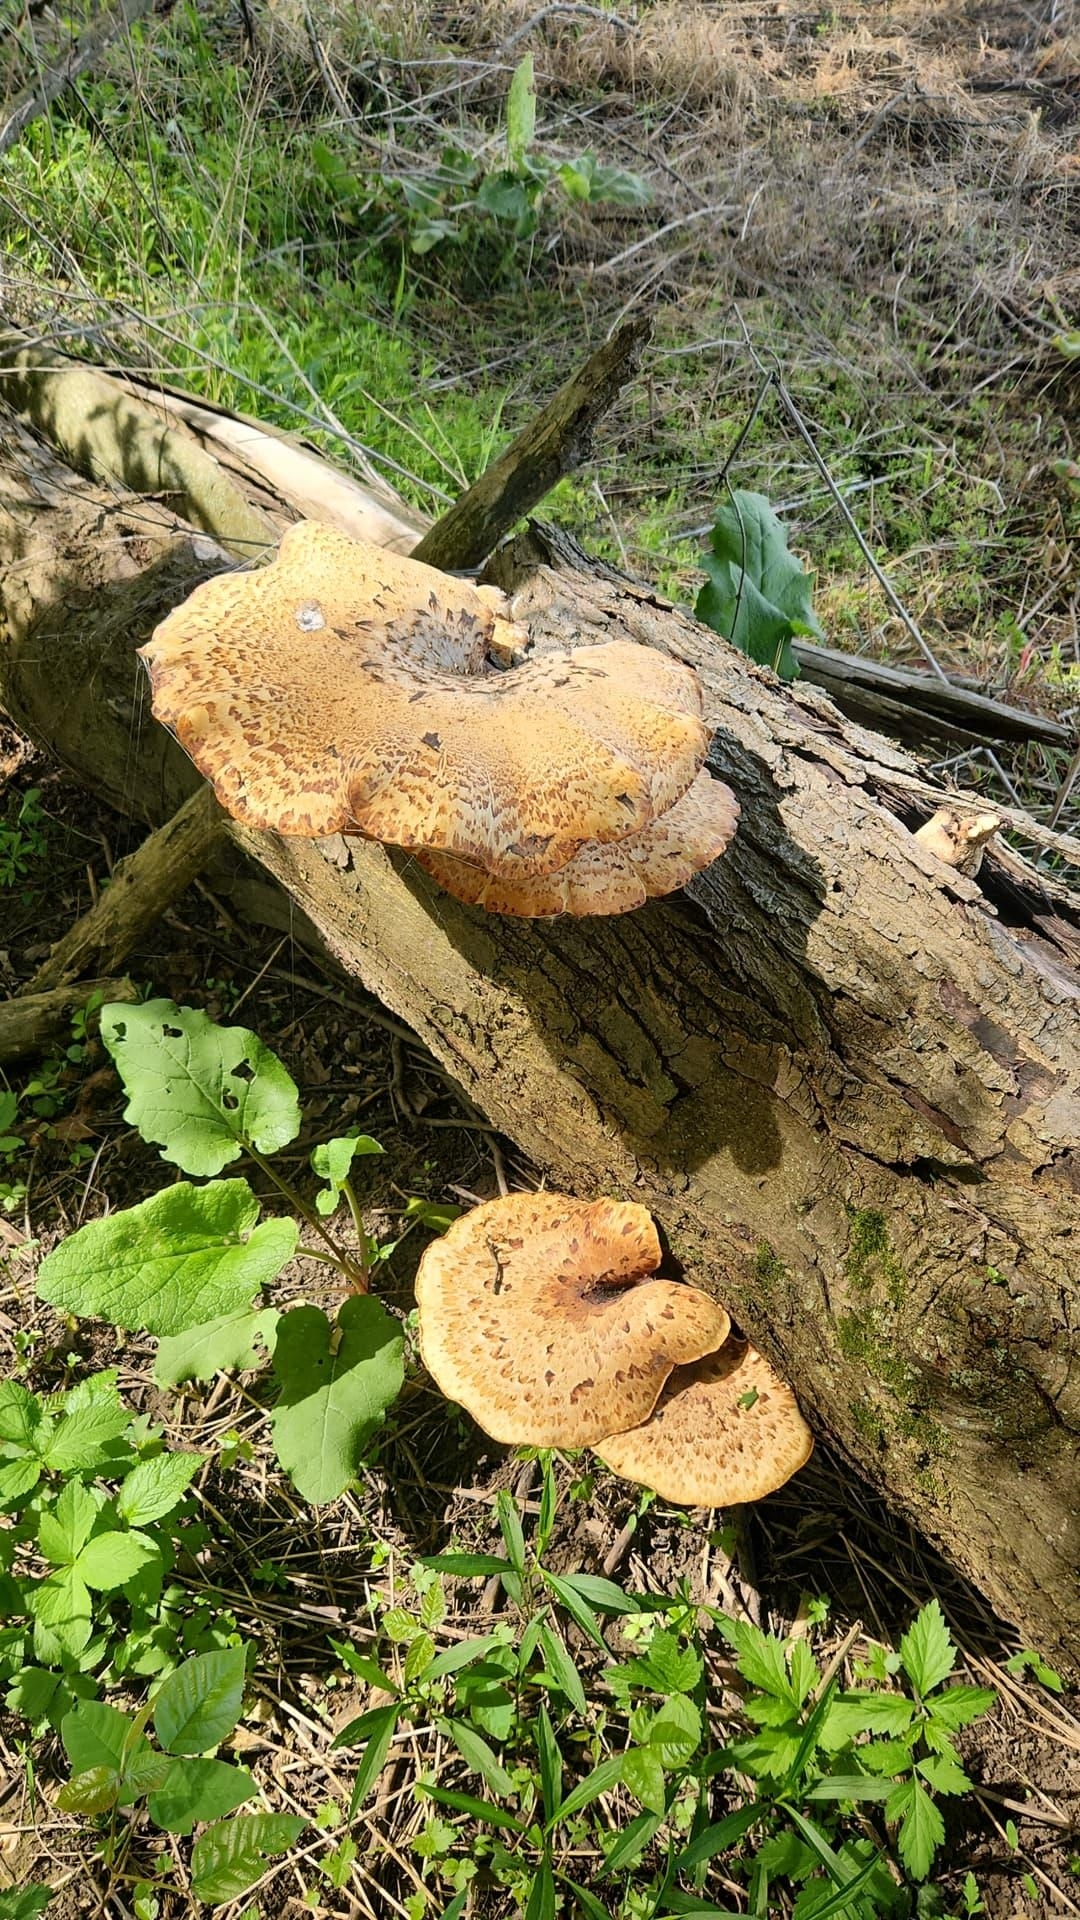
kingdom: Fungi
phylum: Basidiomycota
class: Agaricomycetes
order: Polyporales
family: Polyporaceae
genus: Cerioporus
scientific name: Cerioporus squamosus
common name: Dryad's saddle
